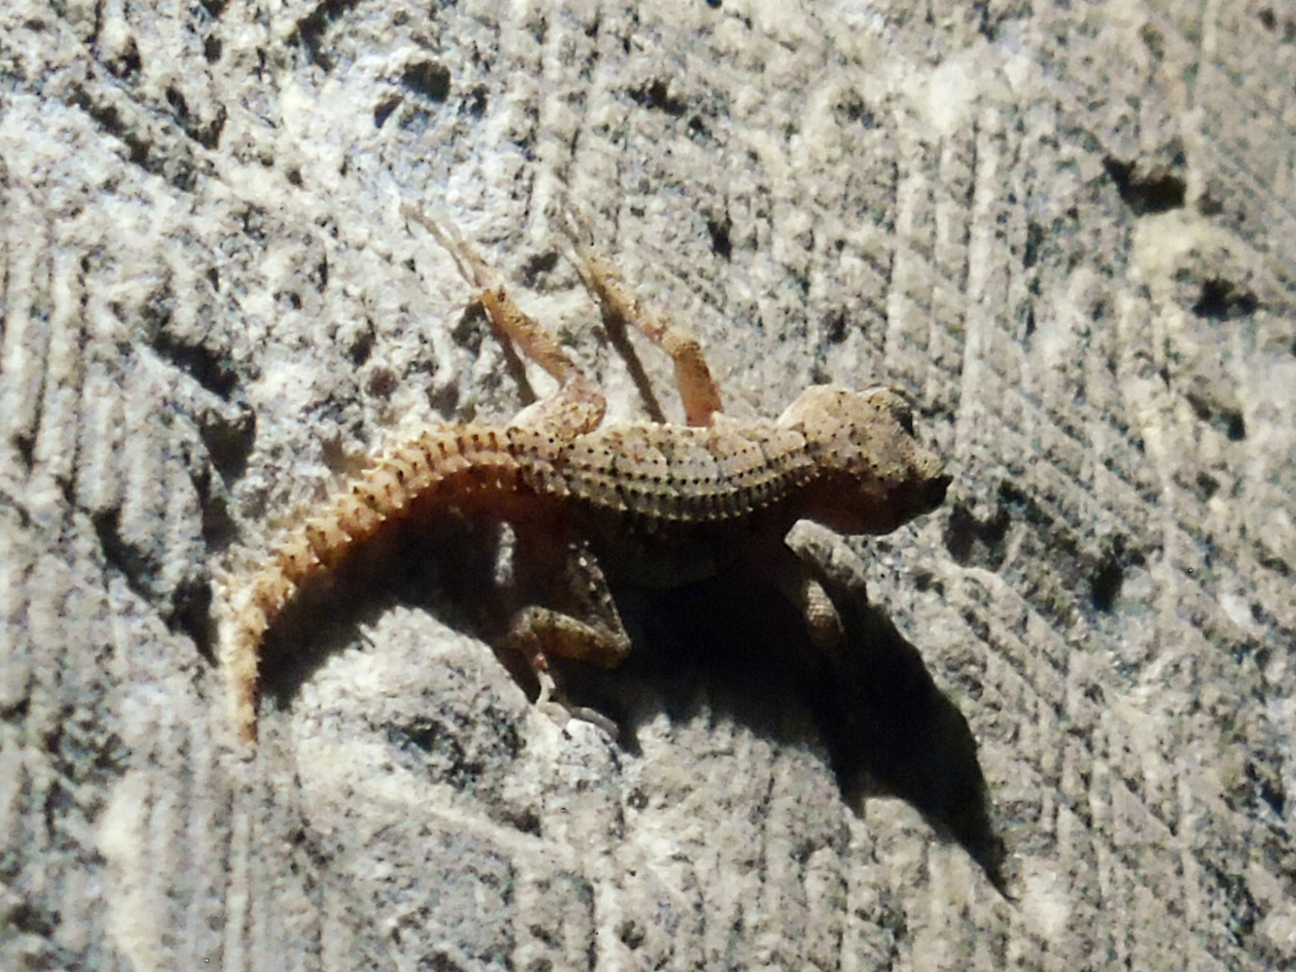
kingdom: Animalia
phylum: Chordata
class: Squamata
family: Gekkonidae
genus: Mediodactylus
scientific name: Mediodactylus orientalis
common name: Mediterranean thin-toed gecko
